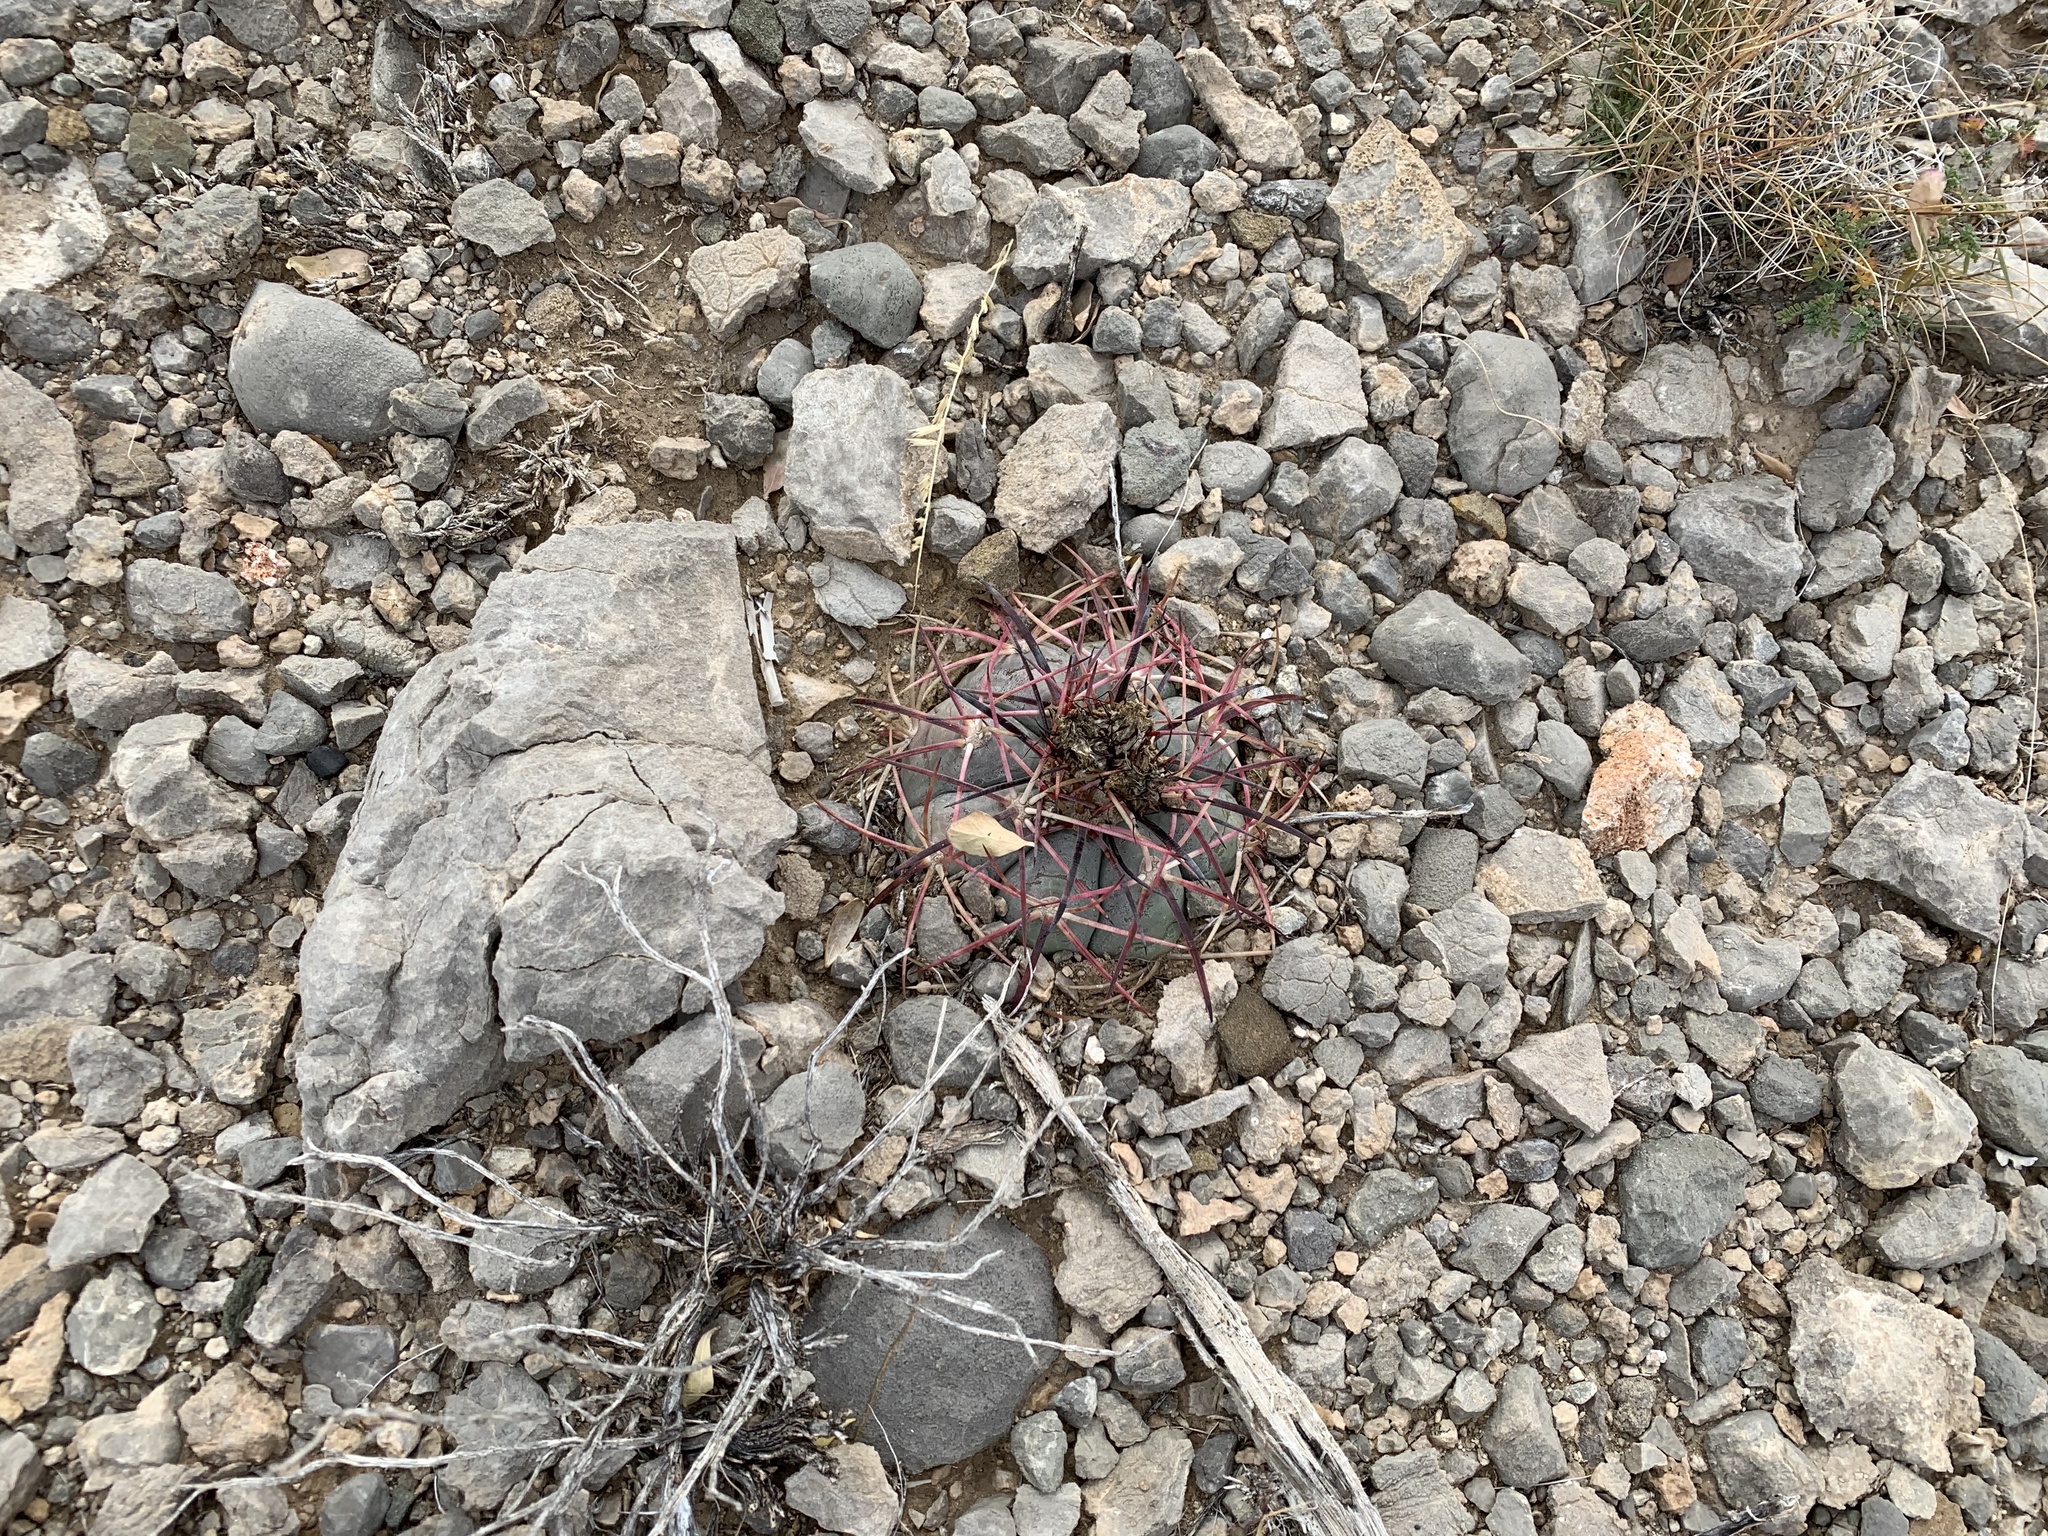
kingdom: Plantae
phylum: Tracheophyta
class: Magnoliopsida
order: Caryophyllales
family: Cactaceae
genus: Echinocactus
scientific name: Echinocactus horizonthalonius
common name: Devilshead
